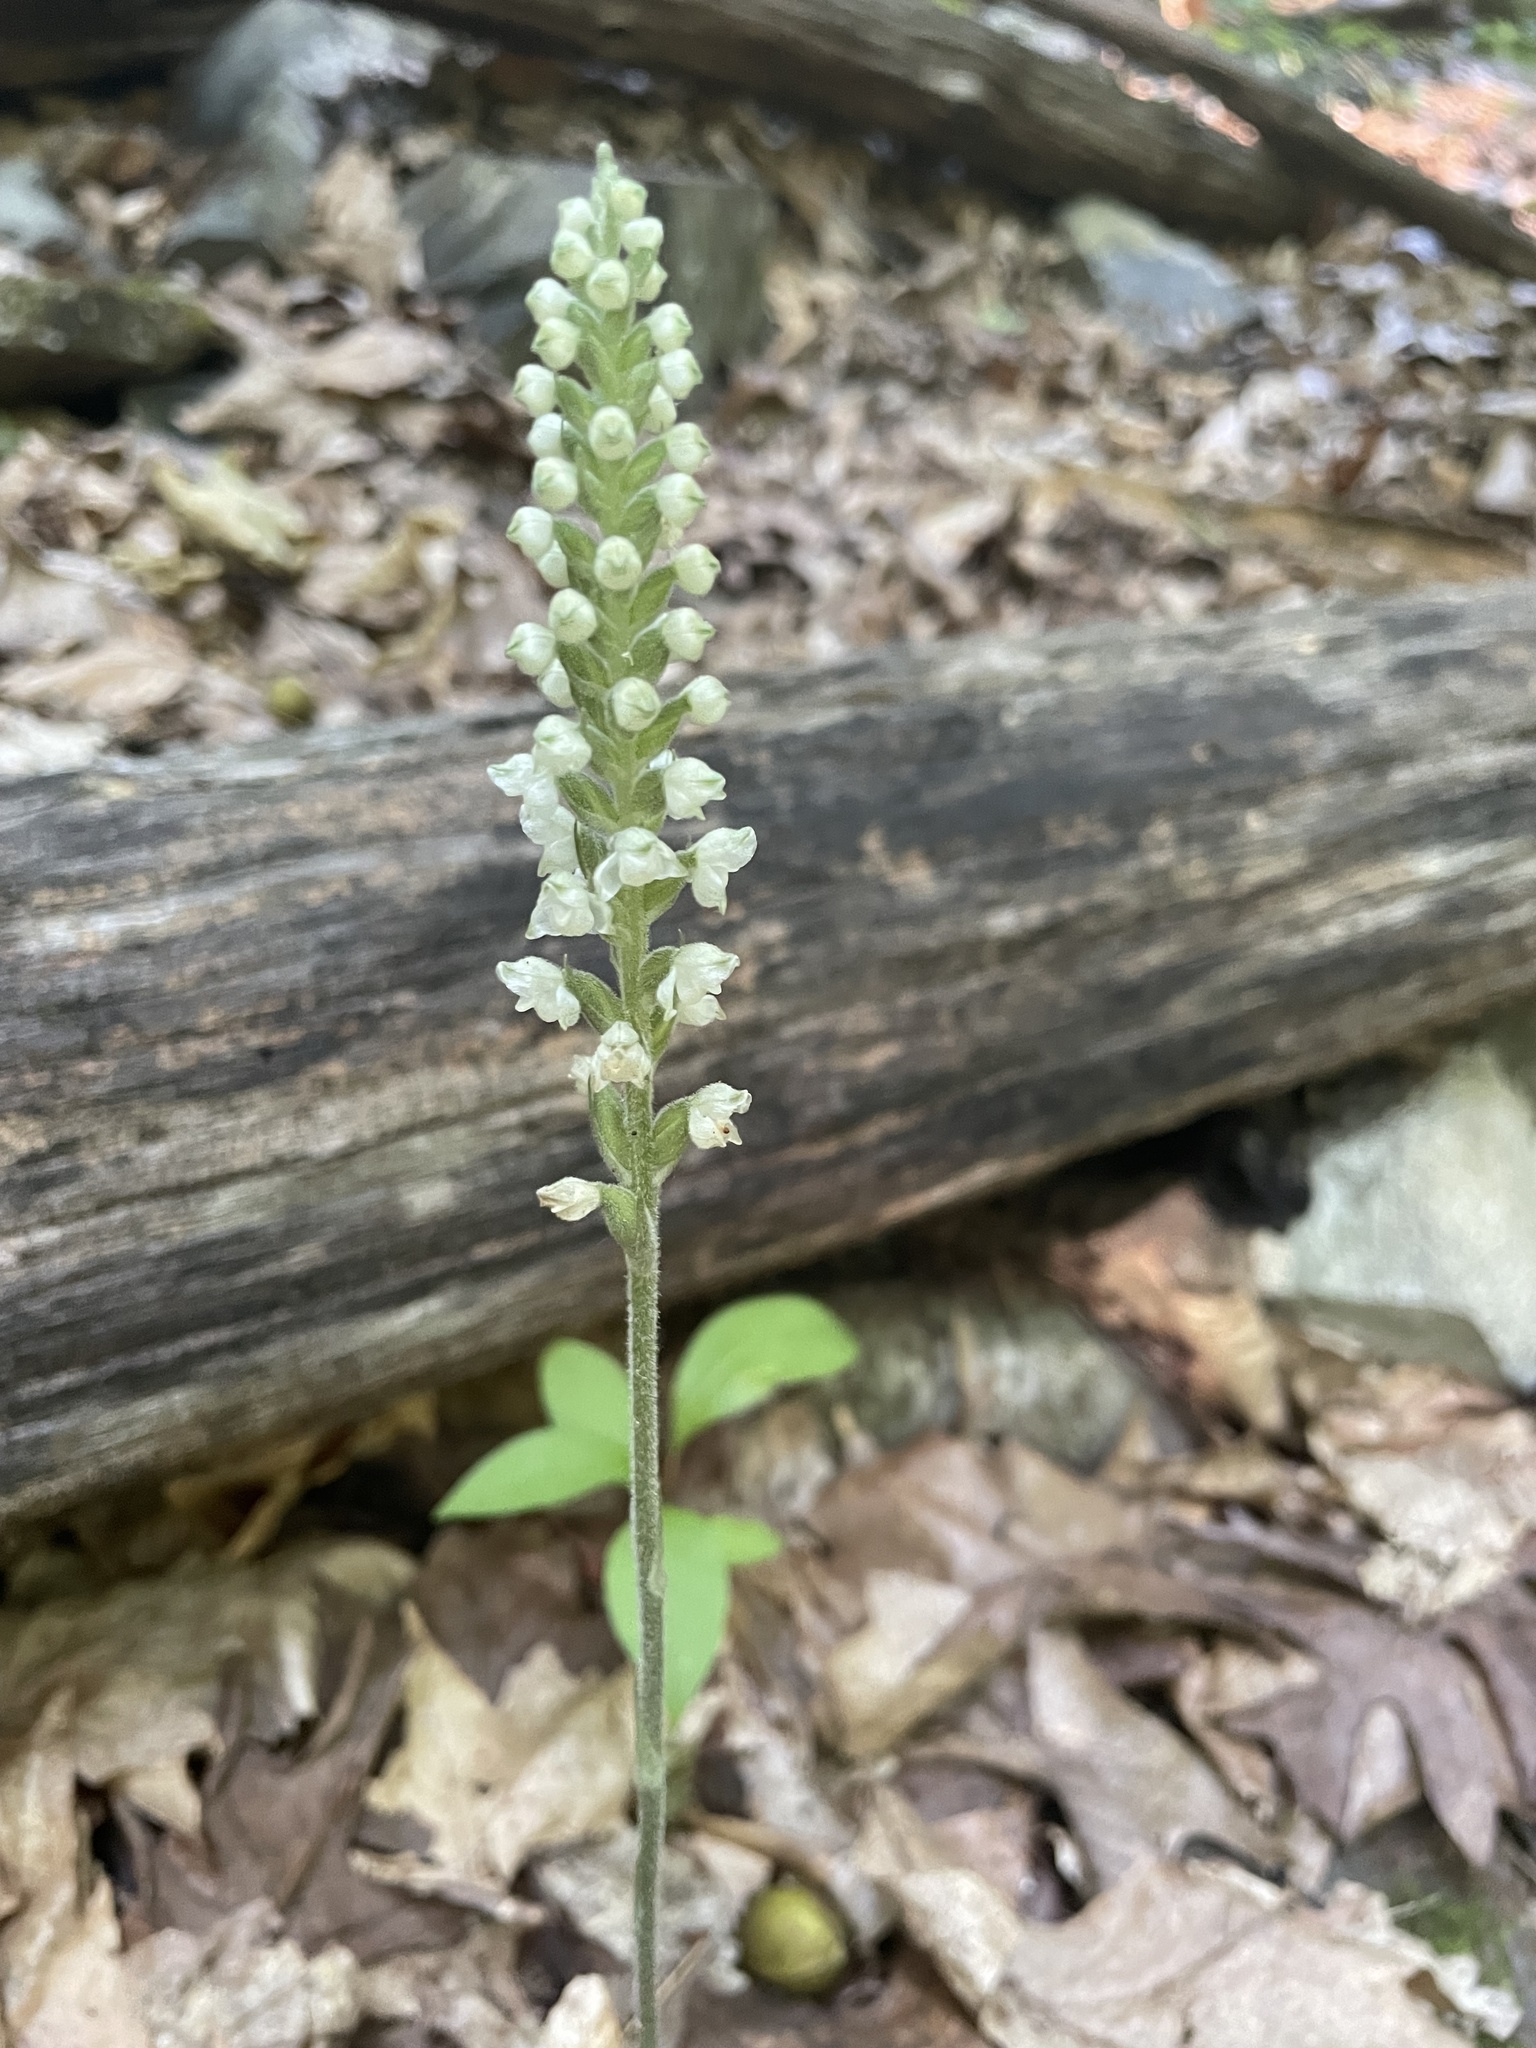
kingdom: Plantae
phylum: Tracheophyta
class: Liliopsida
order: Asparagales
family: Orchidaceae
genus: Goodyera
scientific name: Goodyera pubescens
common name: Downy rattlesnake-plantain
